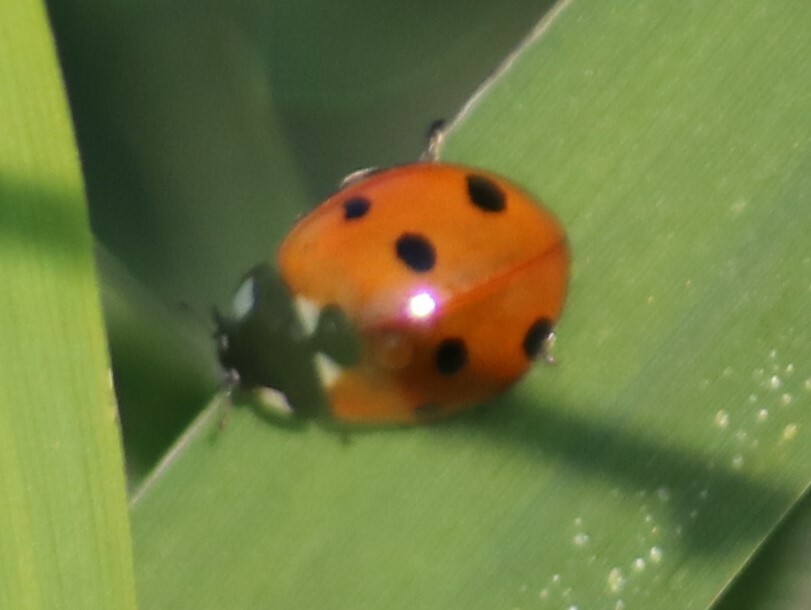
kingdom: Animalia
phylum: Arthropoda
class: Insecta
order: Coleoptera
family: Coccinellidae
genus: Coccinella
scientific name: Coccinella septempunctata
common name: Sevenspotted lady beetle
